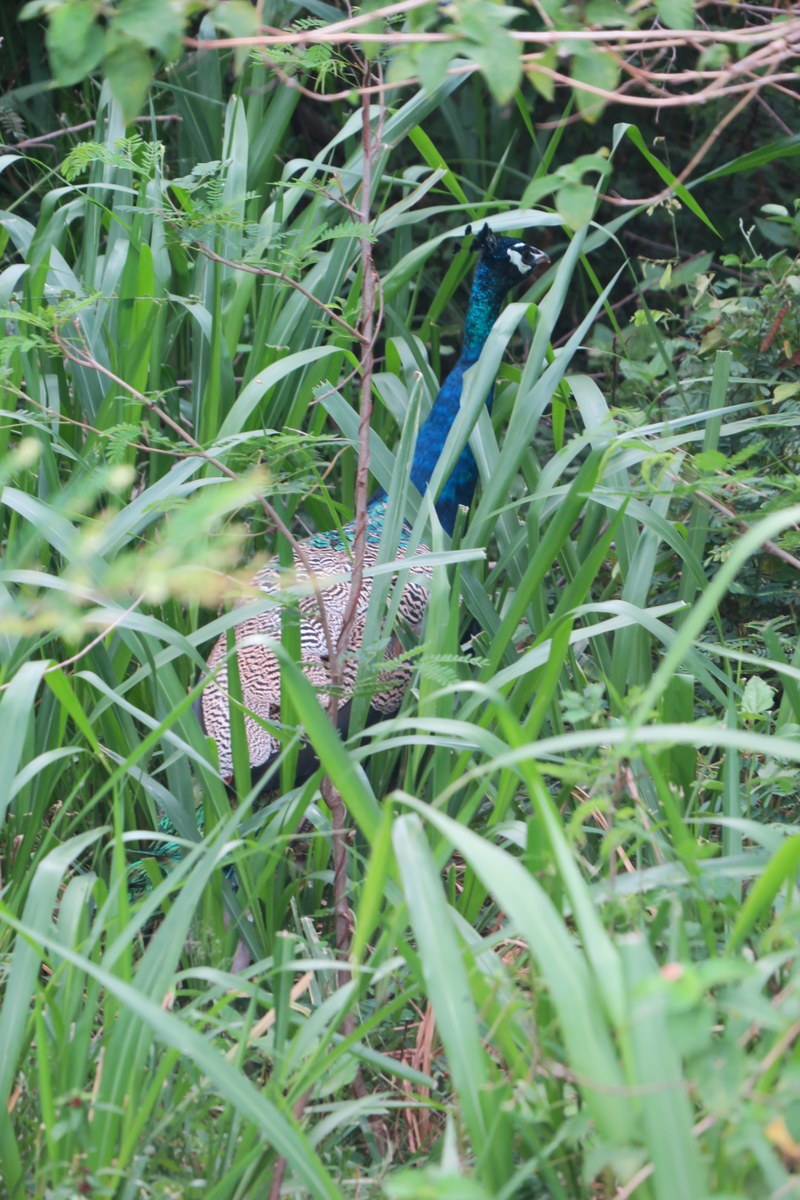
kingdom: Animalia
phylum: Chordata
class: Aves
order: Galliformes
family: Phasianidae
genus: Pavo
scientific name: Pavo cristatus
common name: Indian peafowl
